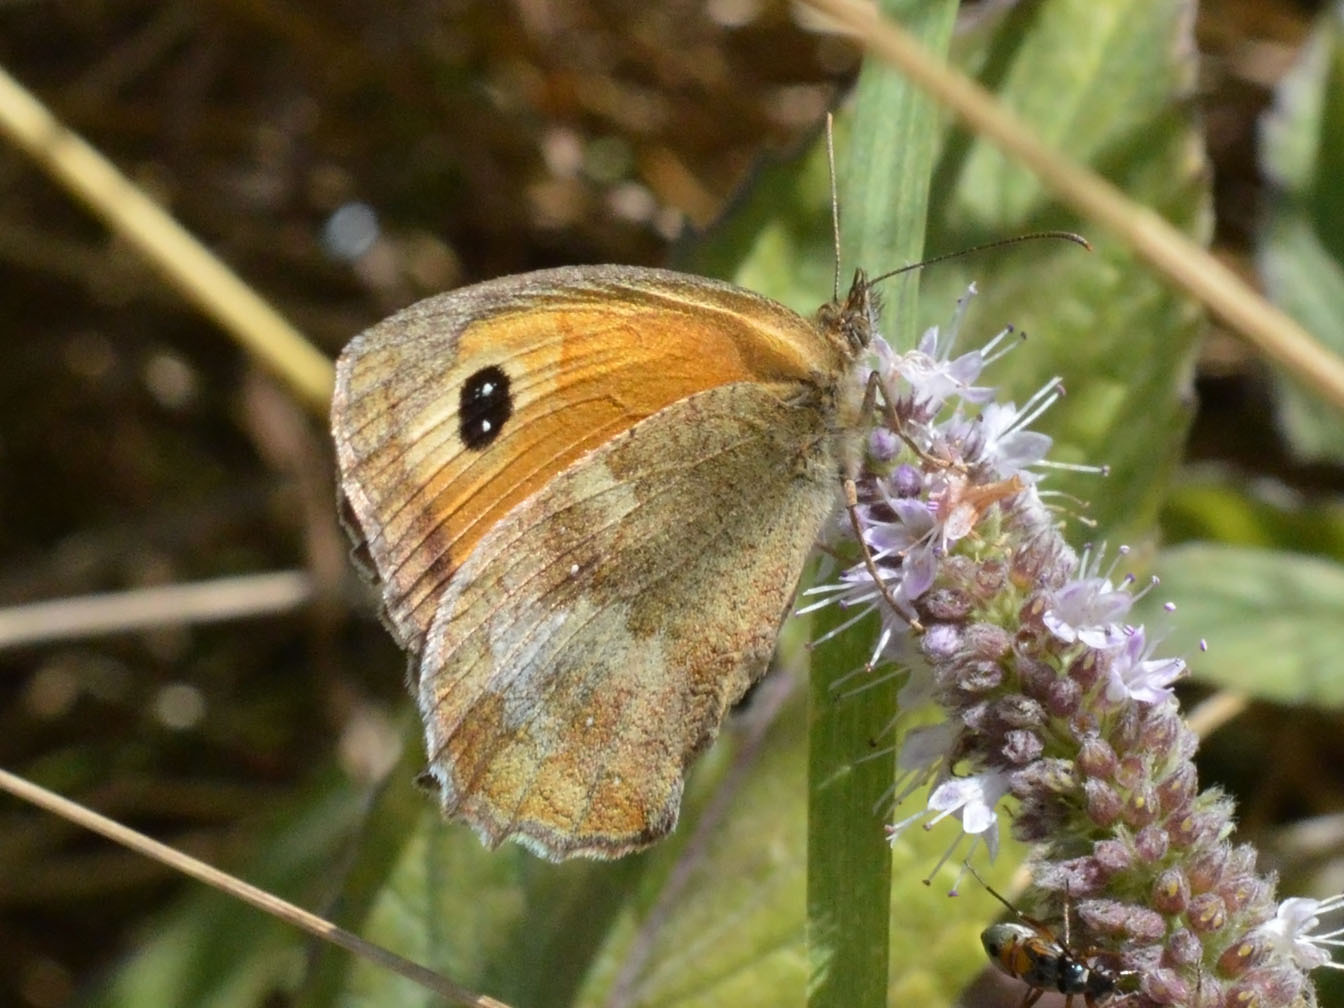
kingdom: Animalia
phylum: Arthropoda
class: Insecta
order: Lepidoptera
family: Nymphalidae
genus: Pyronia
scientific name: Pyronia tithonus
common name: Gatekeeper
